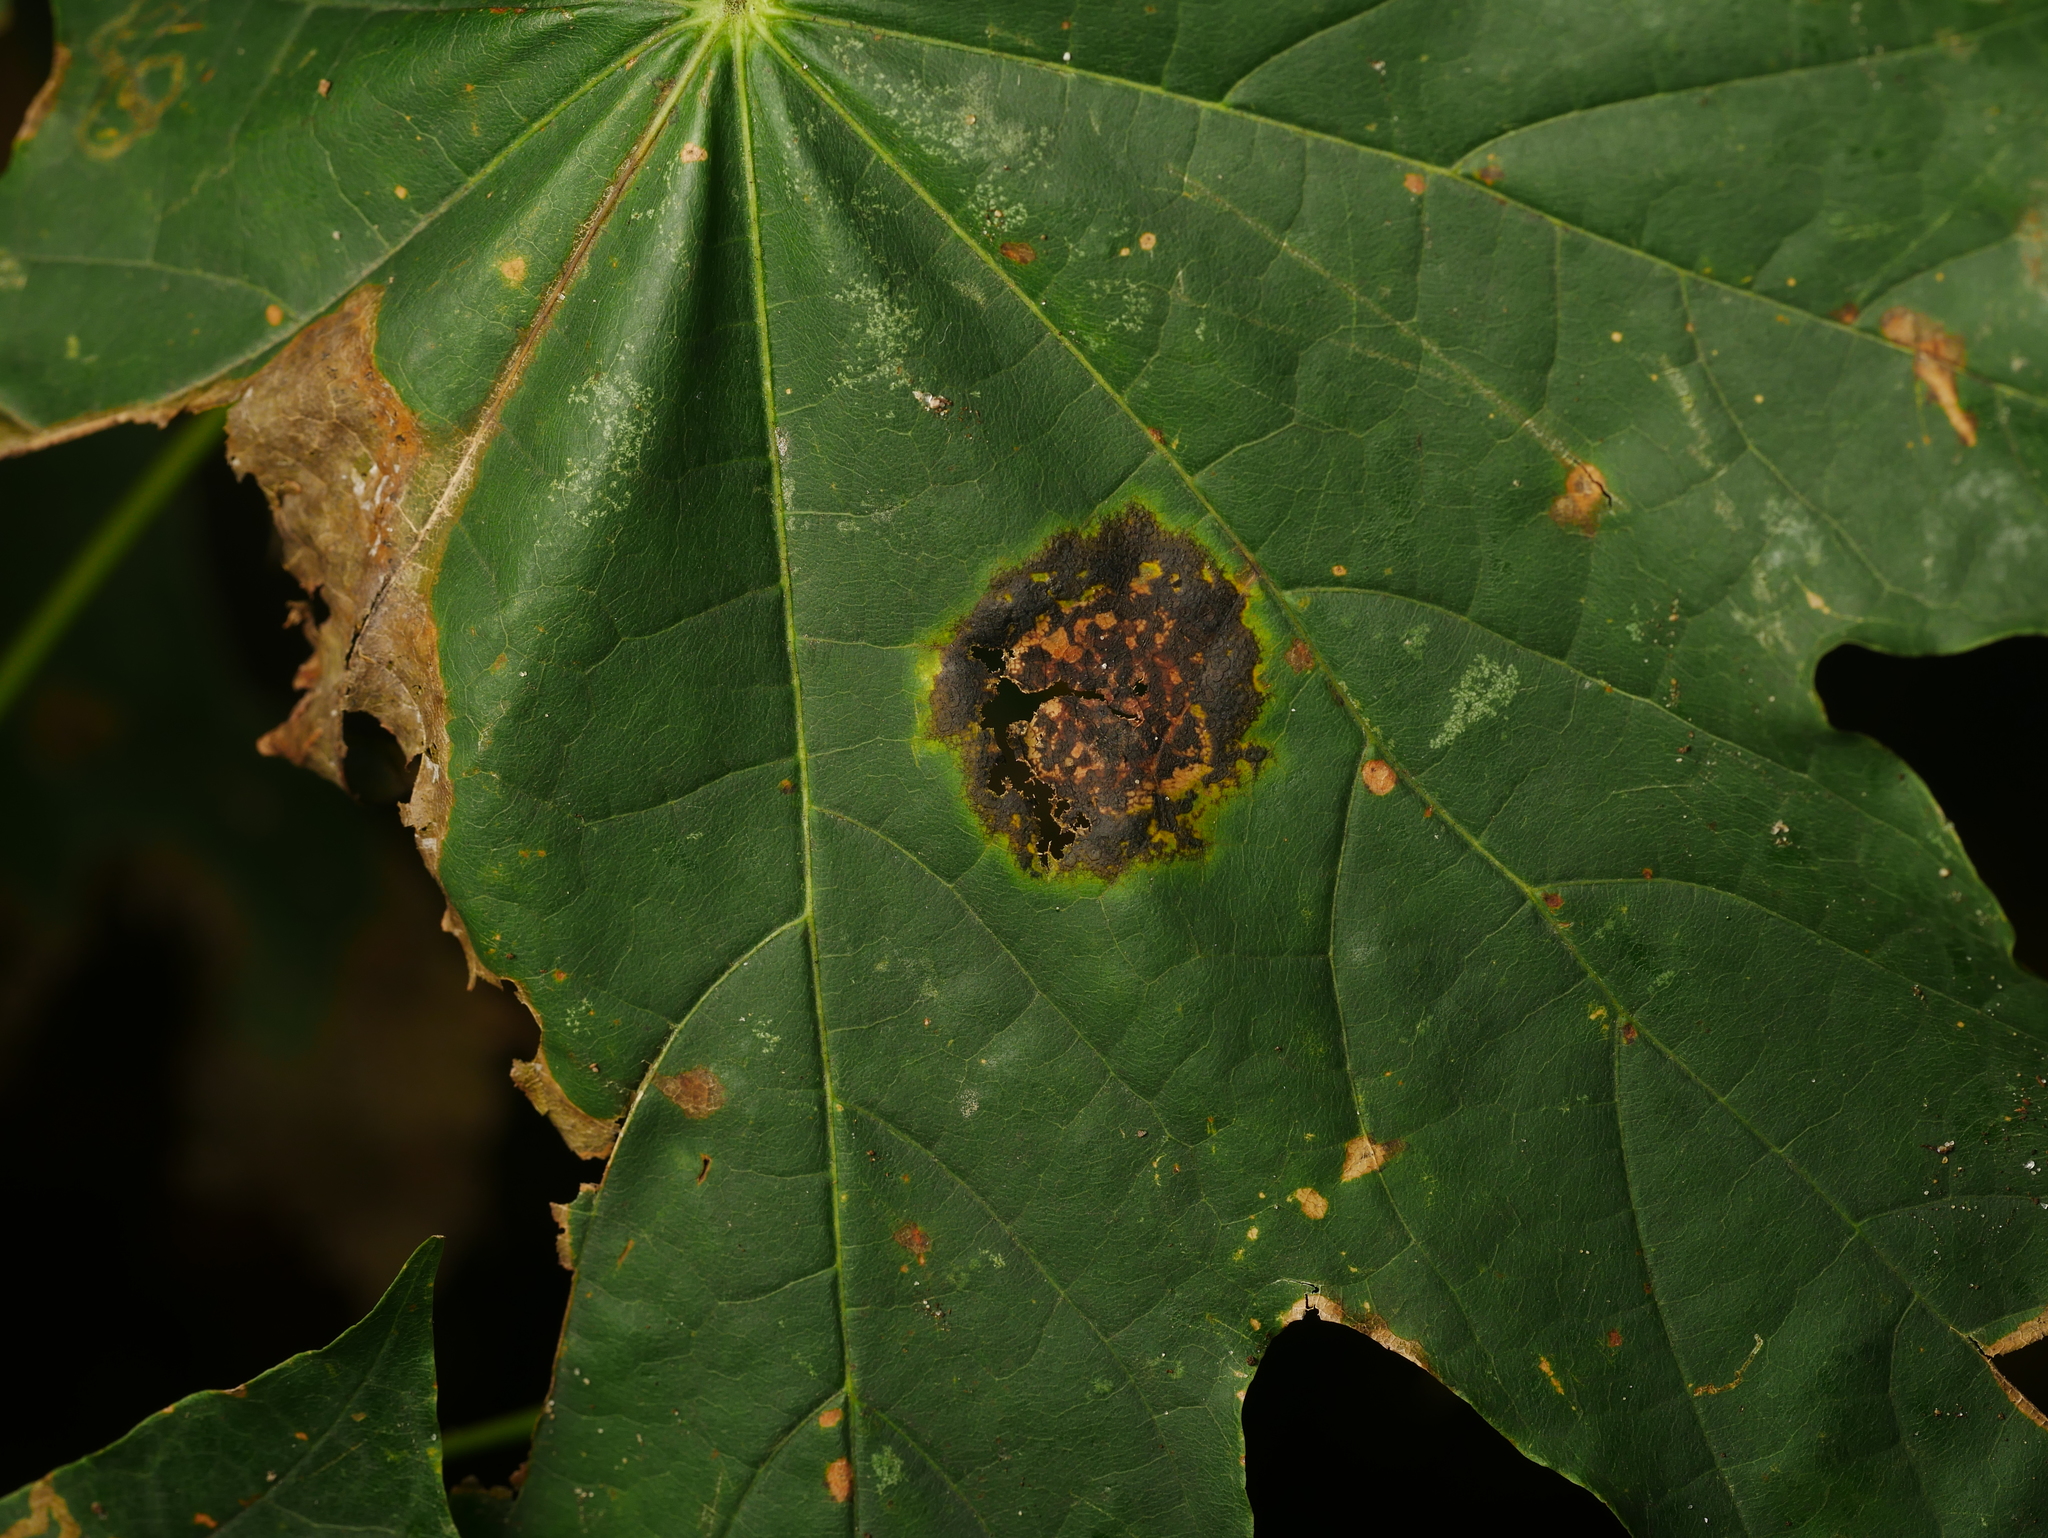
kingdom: Fungi
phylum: Ascomycota
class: Leotiomycetes
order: Rhytismatales
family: Rhytismataceae
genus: Rhytisma
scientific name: Rhytisma acerinum
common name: European tar spot
